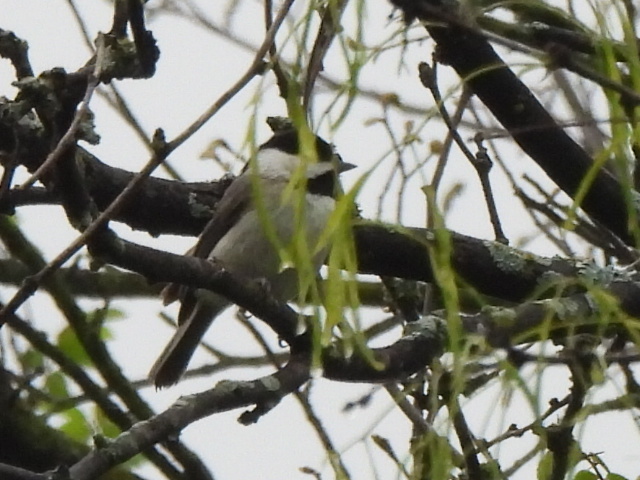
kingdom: Animalia
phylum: Chordata
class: Aves
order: Passeriformes
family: Paridae
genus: Poecile
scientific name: Poecile carolinensis
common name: Carolina chickadee
